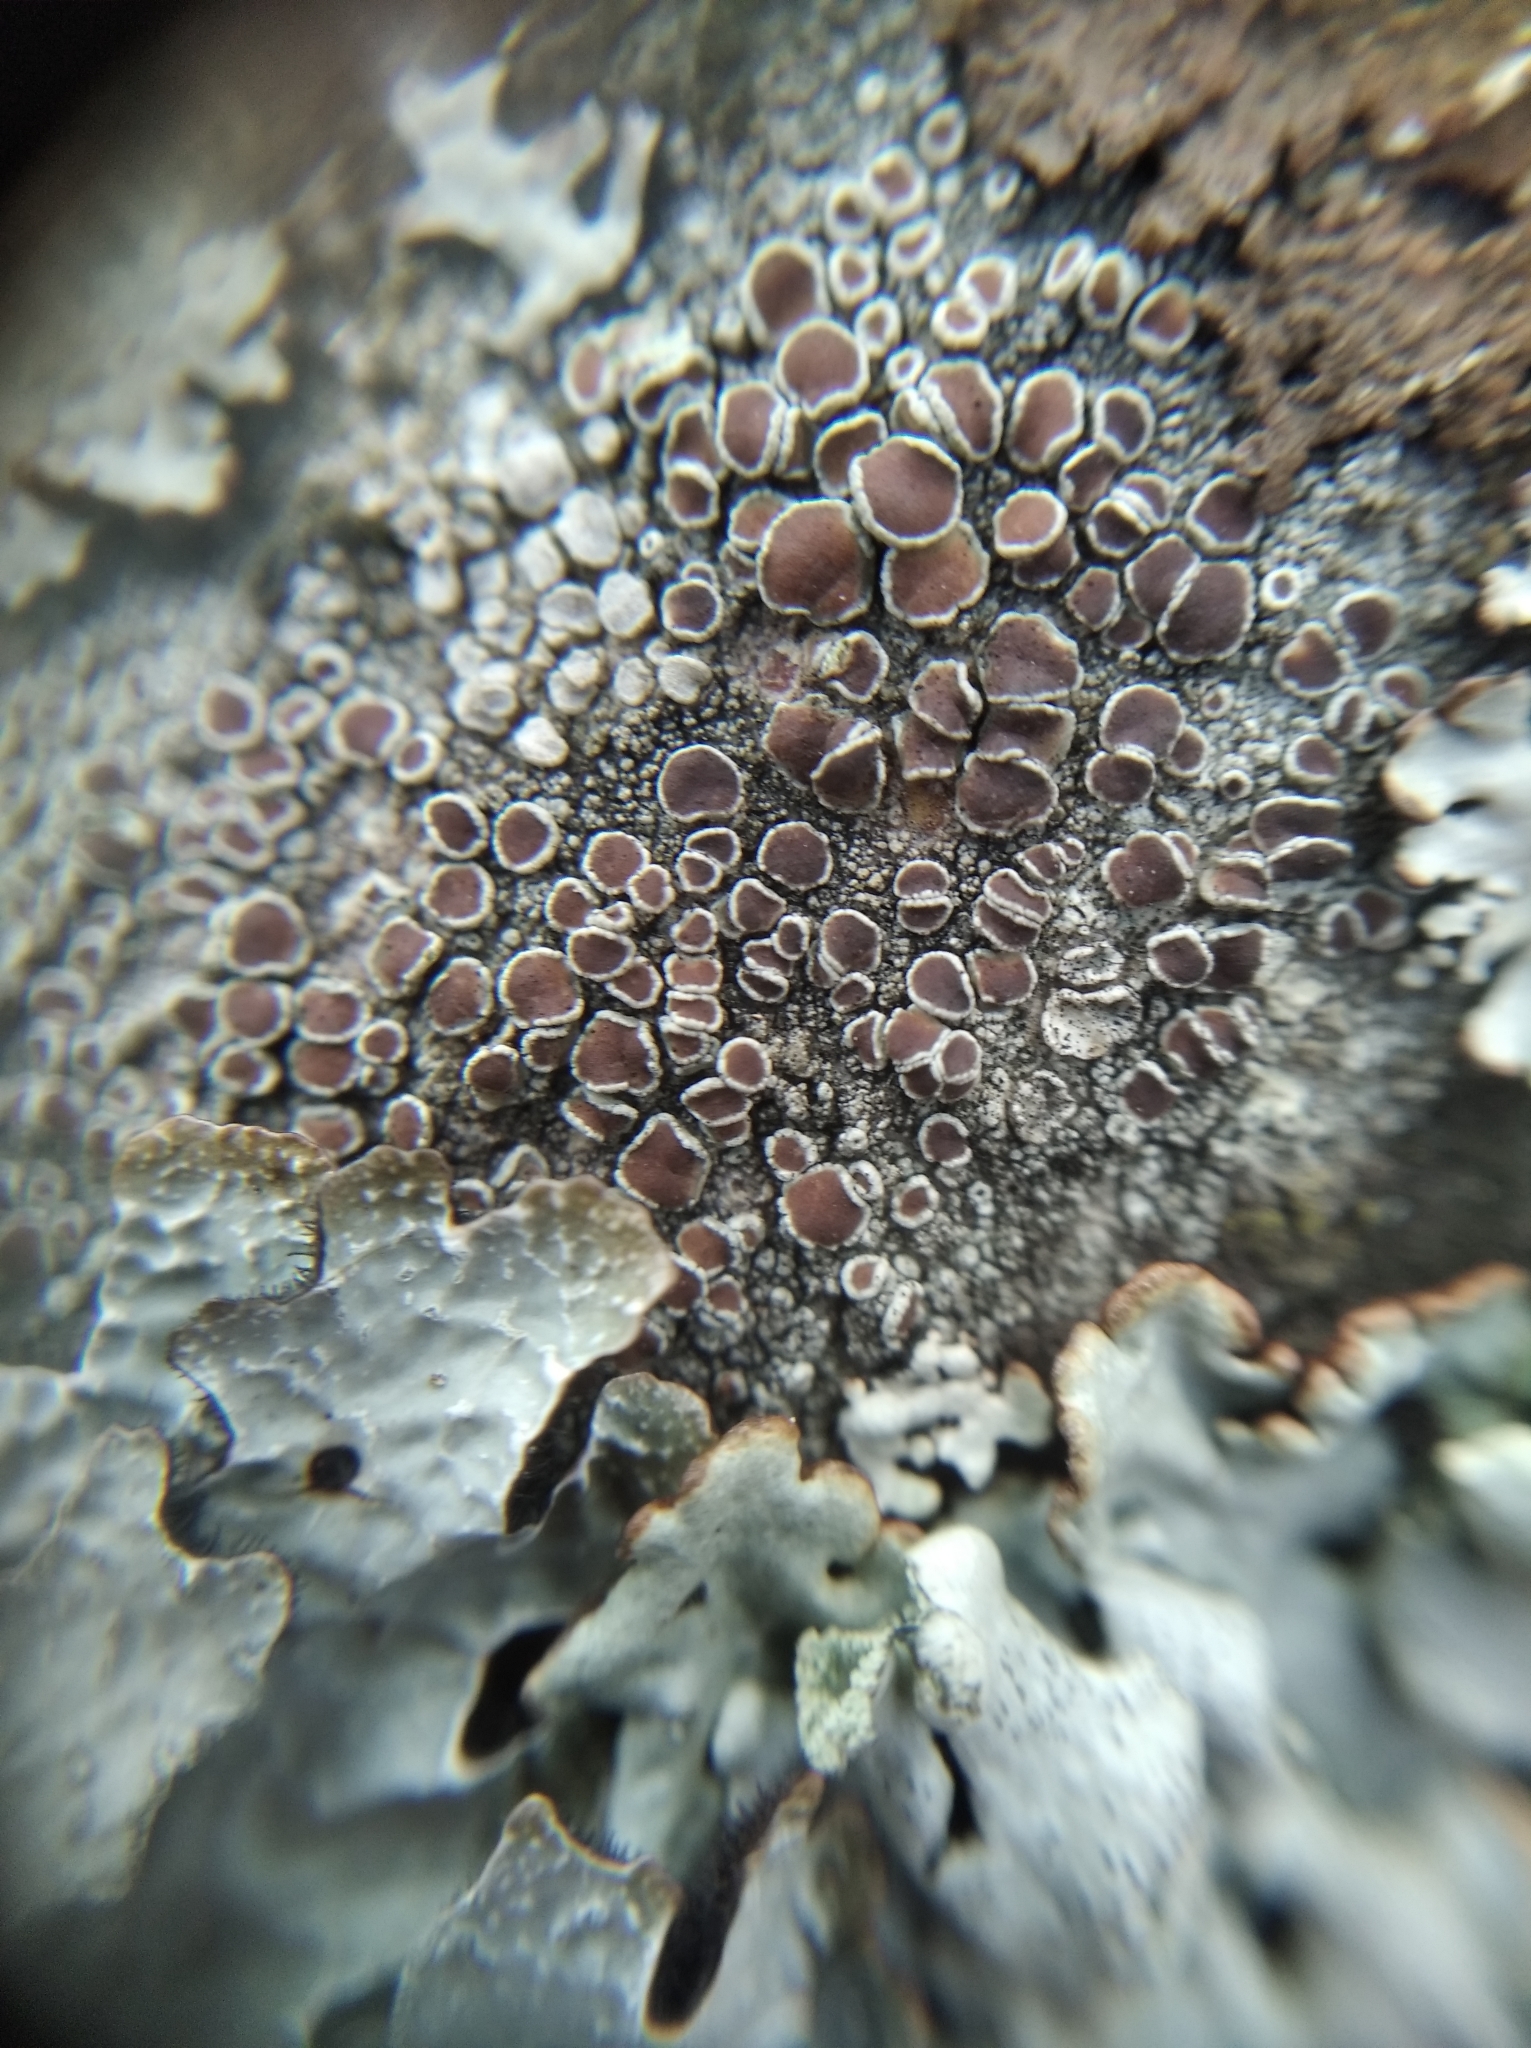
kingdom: Fungi
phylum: Ascomycota
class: Lecanoromycetes
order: Lecanorales
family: Lecanoraceae
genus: Lecanora
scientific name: Lecanora argentata
